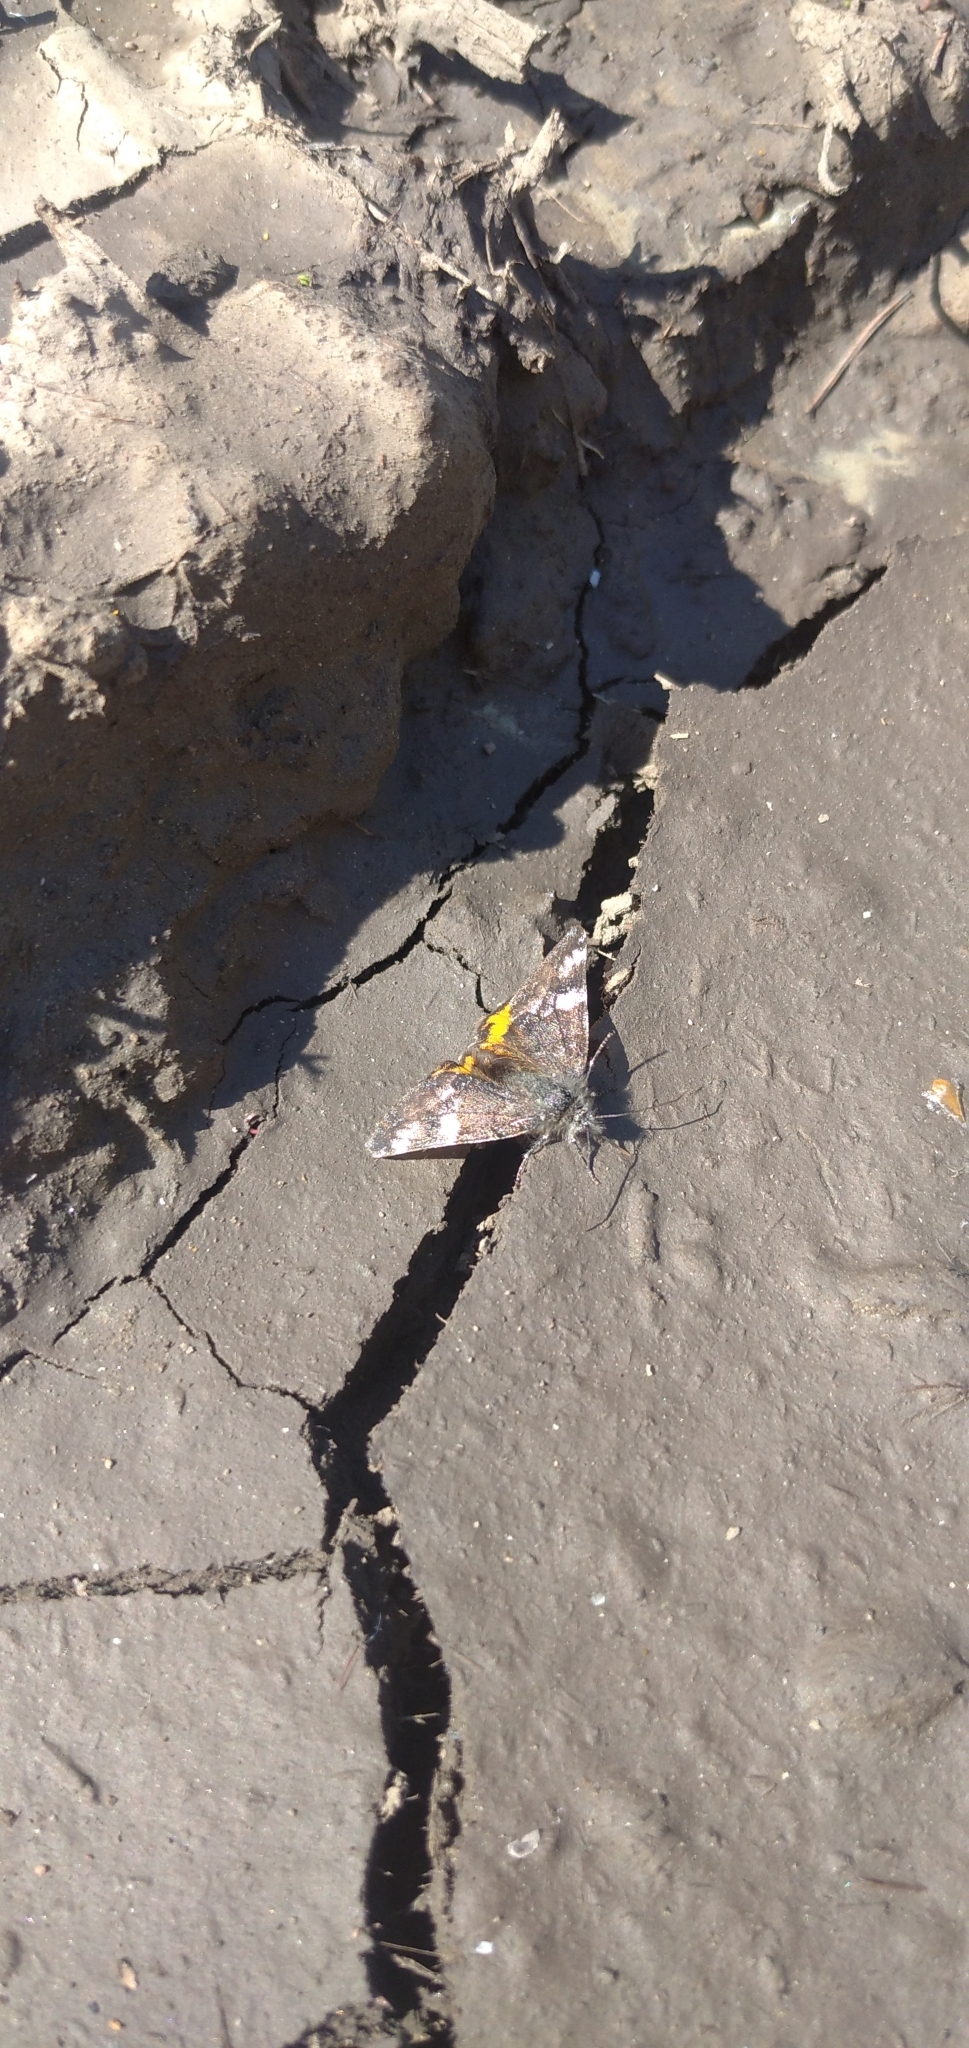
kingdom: Animalia
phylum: Arthropoda
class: Insecta
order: Lepidoptera
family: Geometridae
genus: Archiearis
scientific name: Archiearis parthenias
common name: Orange underwing
